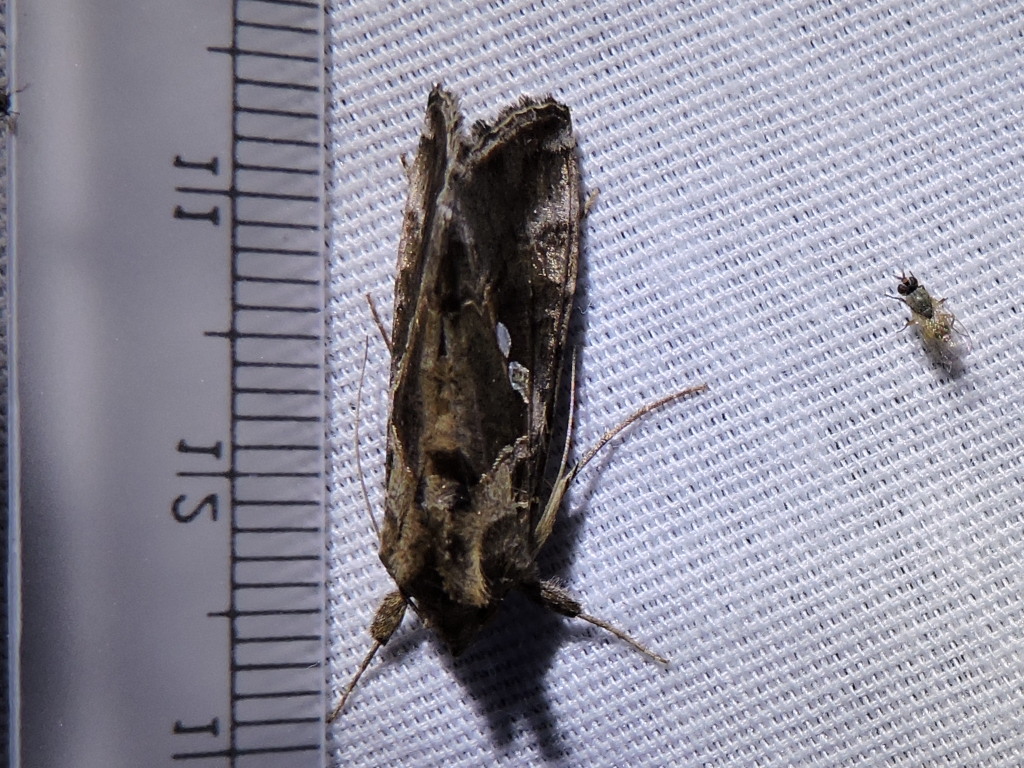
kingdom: Animalia
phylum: Arthropoda
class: Insecta
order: Lepidoptera
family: Noctuidae
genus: Chrysodeixis
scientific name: Chrysodeixis includens
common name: Cutworm moth
